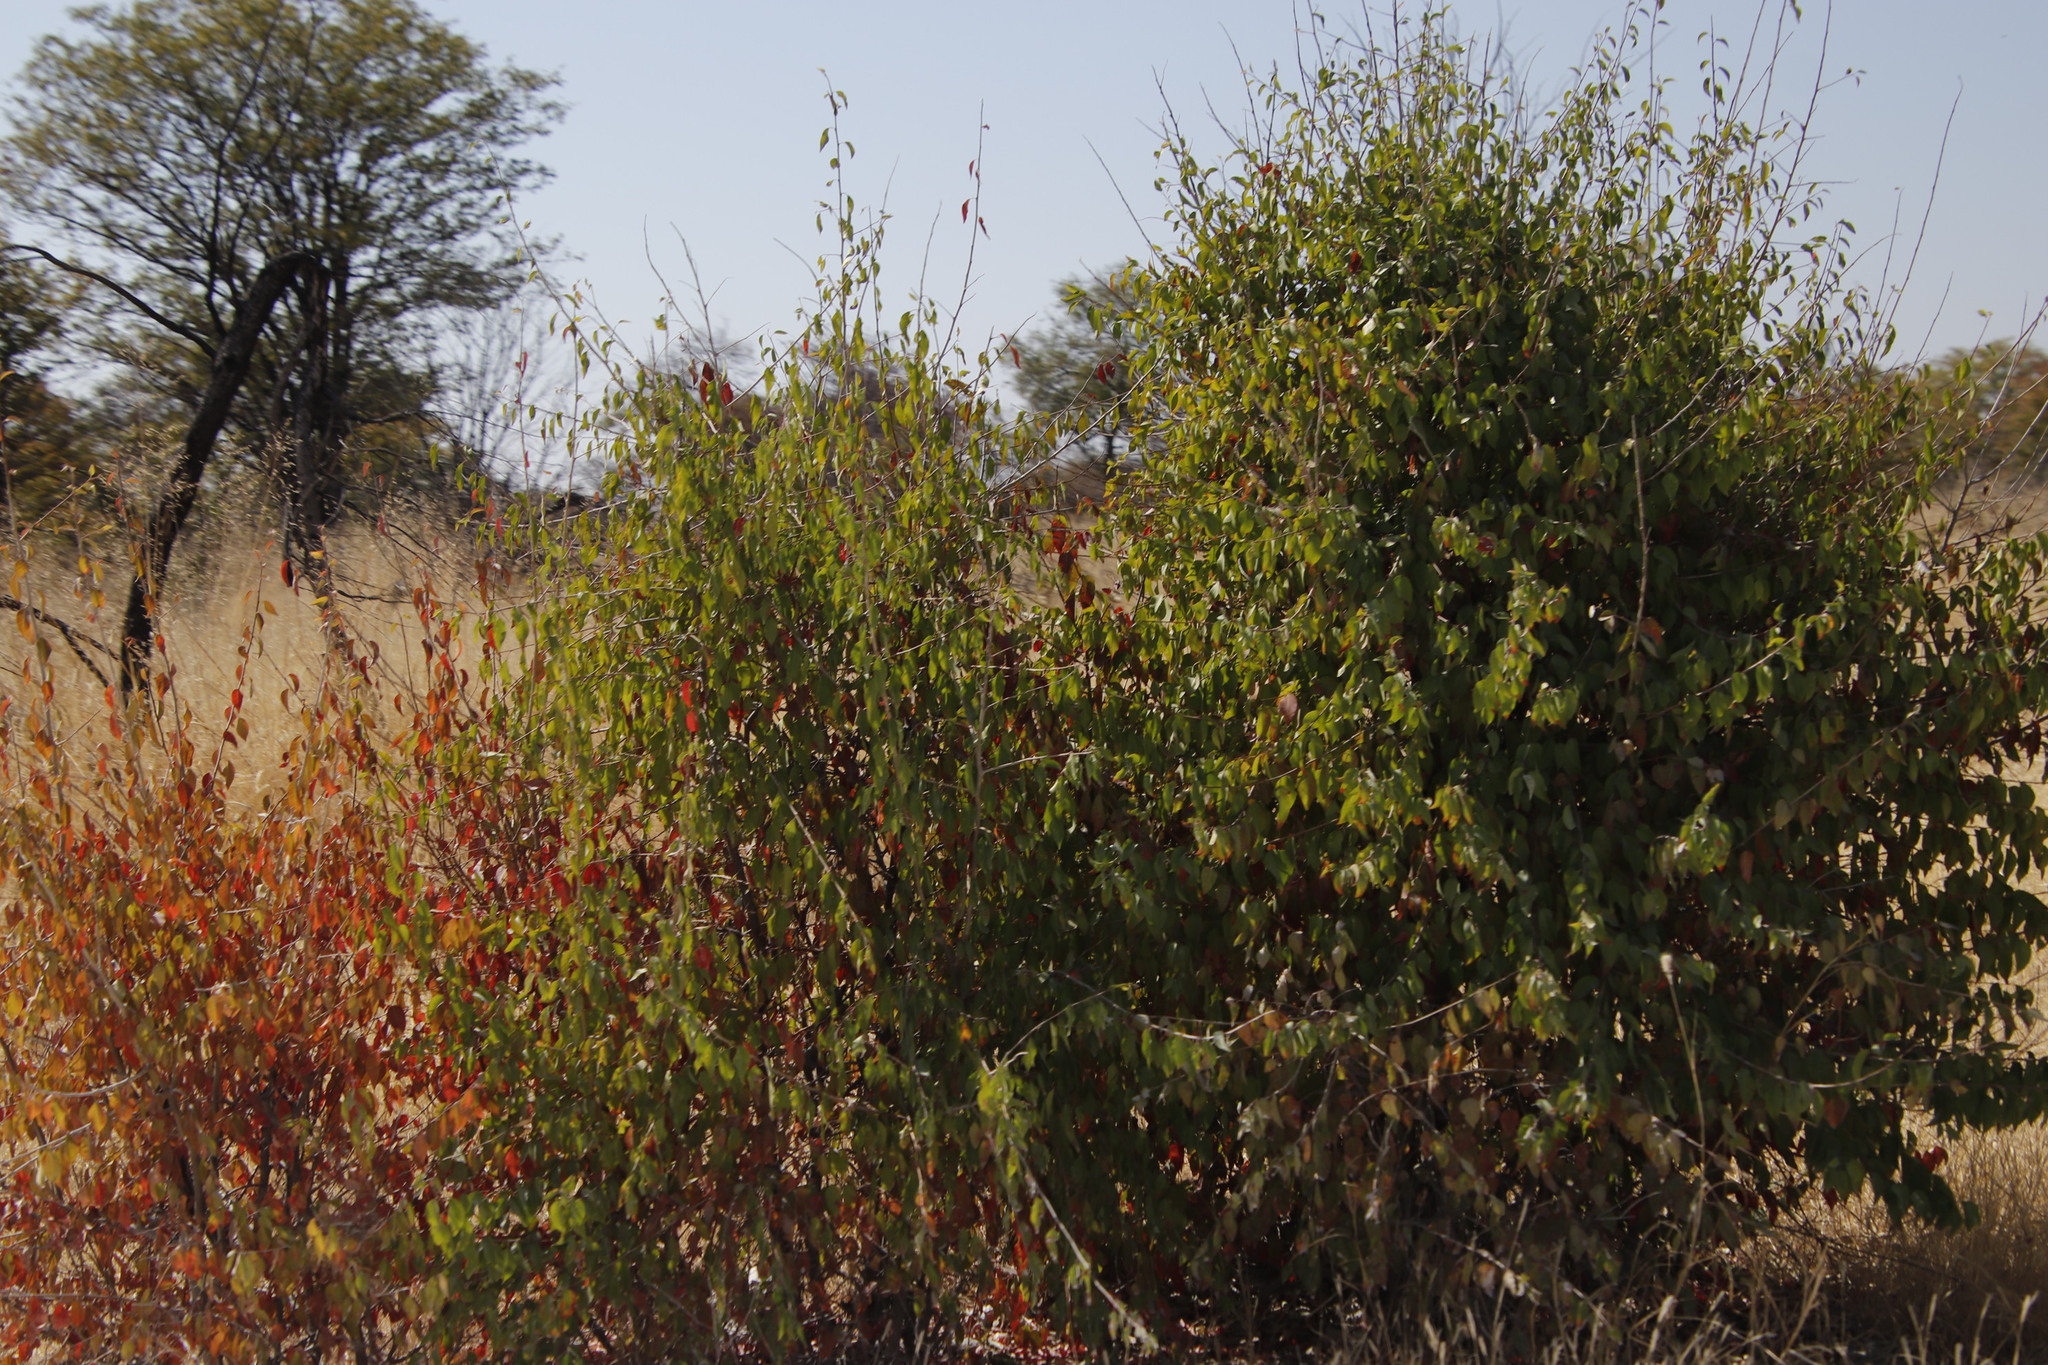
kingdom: Plantae
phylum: Tracheophyta
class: Magnoliopsida
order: Fabales
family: Fabaceae
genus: Colophospermum
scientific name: Colophospermum mopane
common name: Mopane
